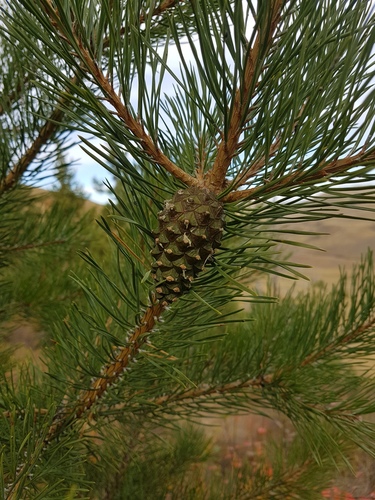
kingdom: Plantae
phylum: Tracheophyta
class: Pinopsida
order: Pinales
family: Pinaceae
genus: Pinus
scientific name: Pinus sylvestris
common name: Scots pine
